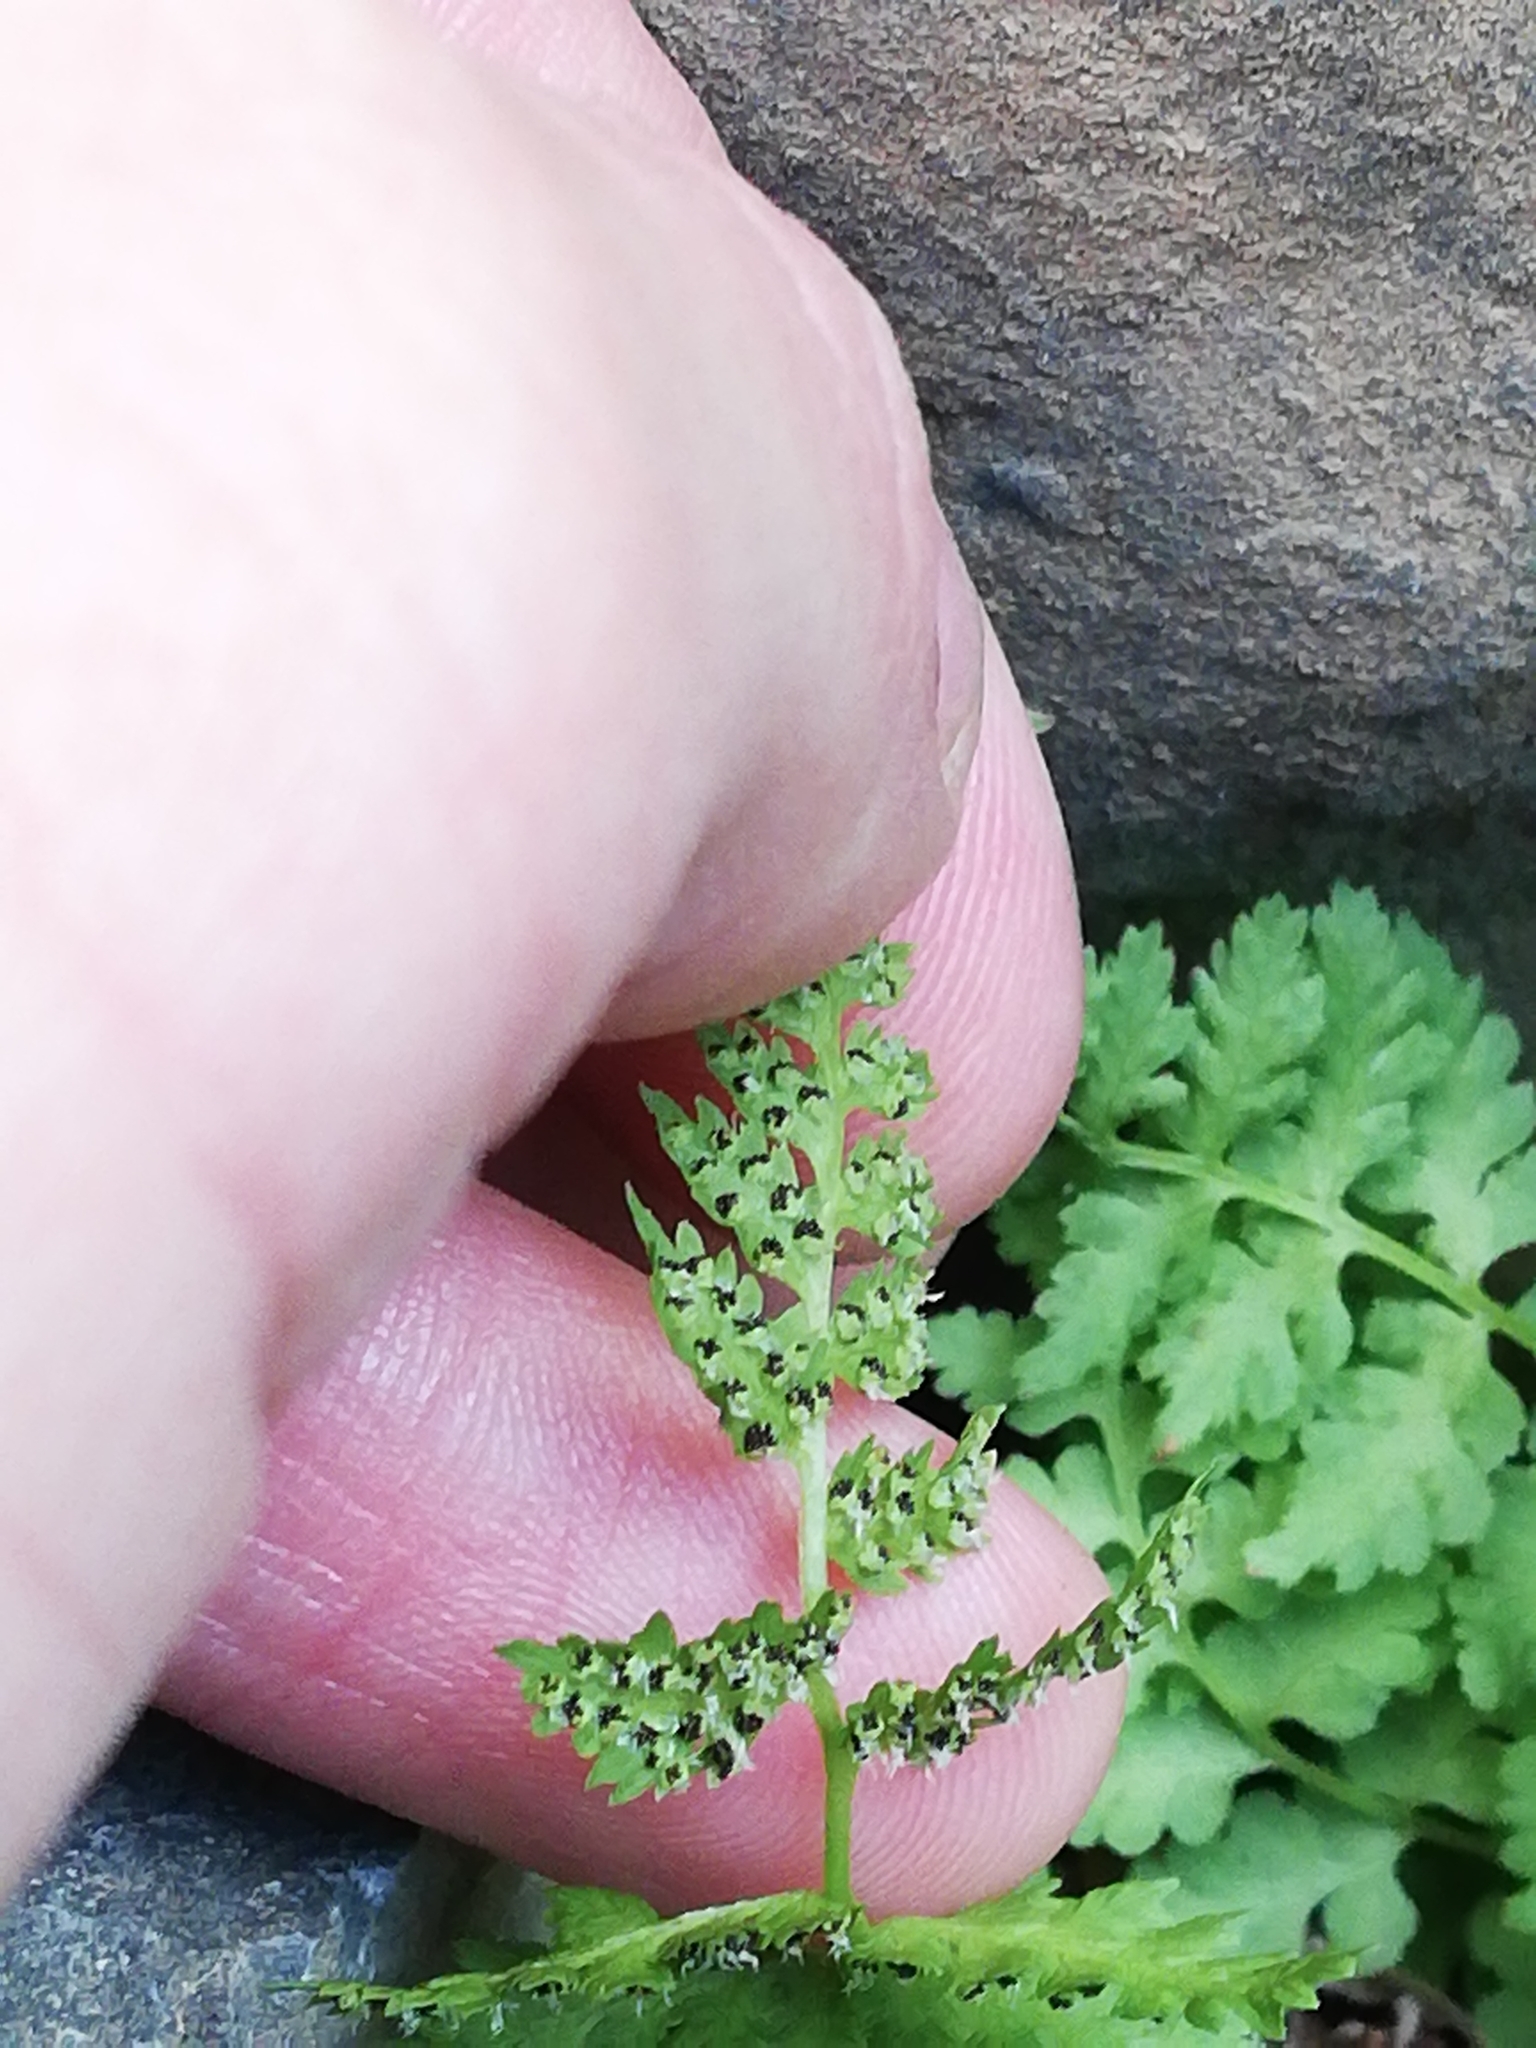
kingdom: Plantae
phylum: Tracheophyta
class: Polypodiopsida
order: Polypodiales
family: Cystopteridaceae
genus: Cystopteris
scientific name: Cystopteris fragilis
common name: Brittle bladder fern
